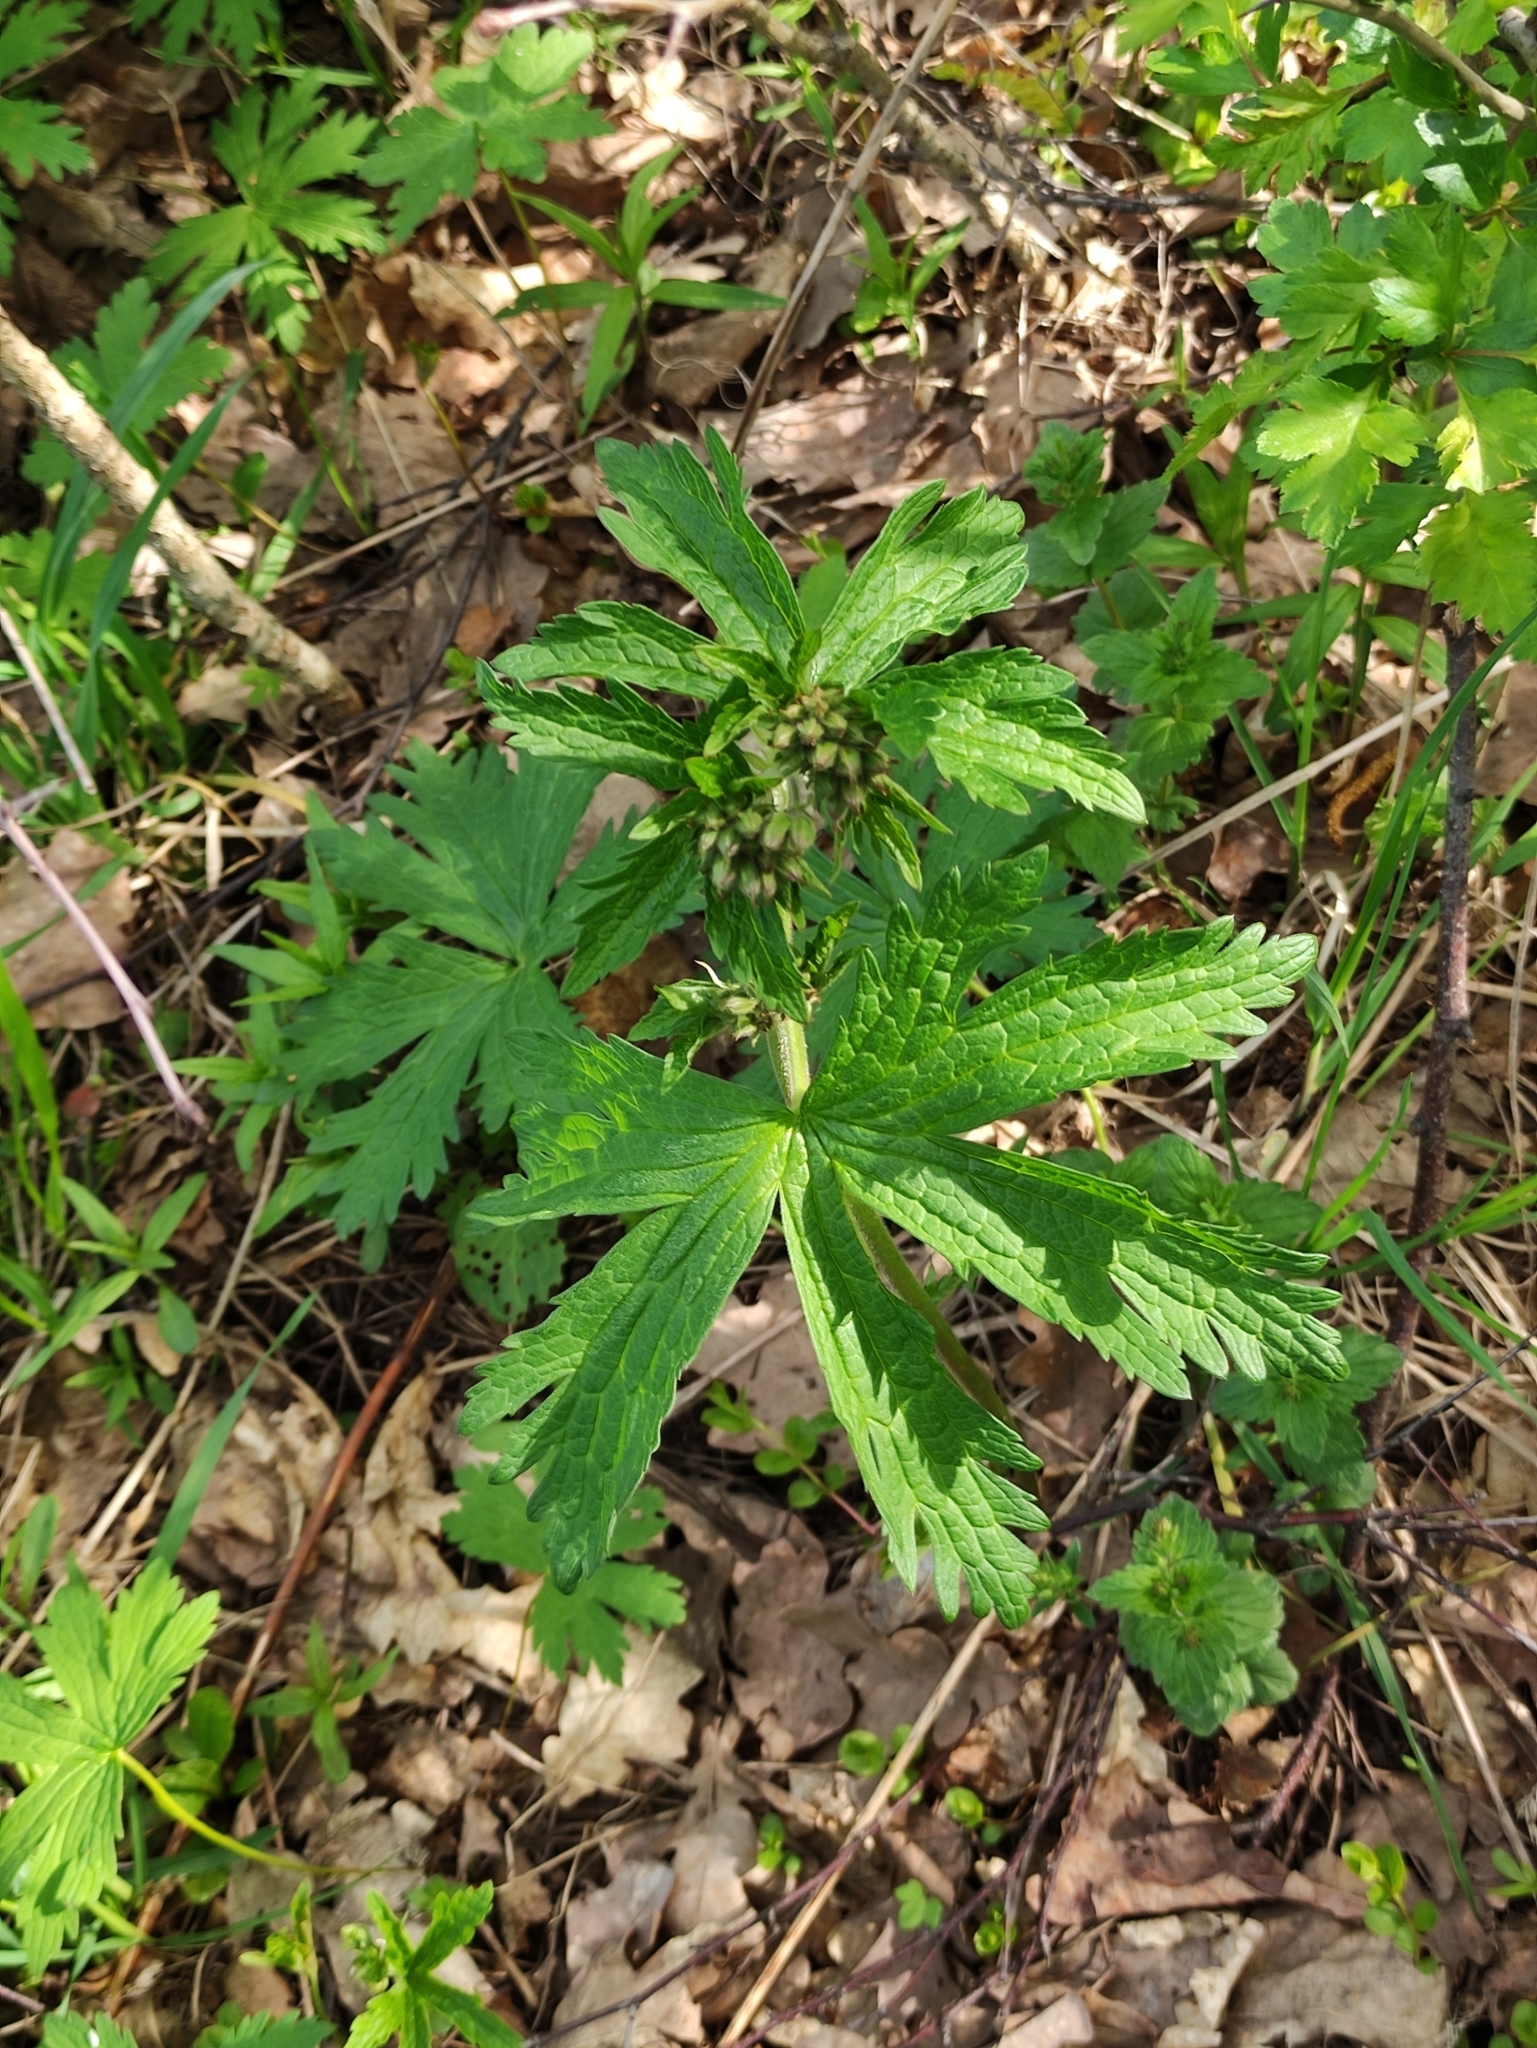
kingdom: Plantae
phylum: Tracheophyta
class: Magnoliopsida
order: Geraniales
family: Geraniaceae
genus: Geranium
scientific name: Geranium sylvaticum
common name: Wood crane's-bill
